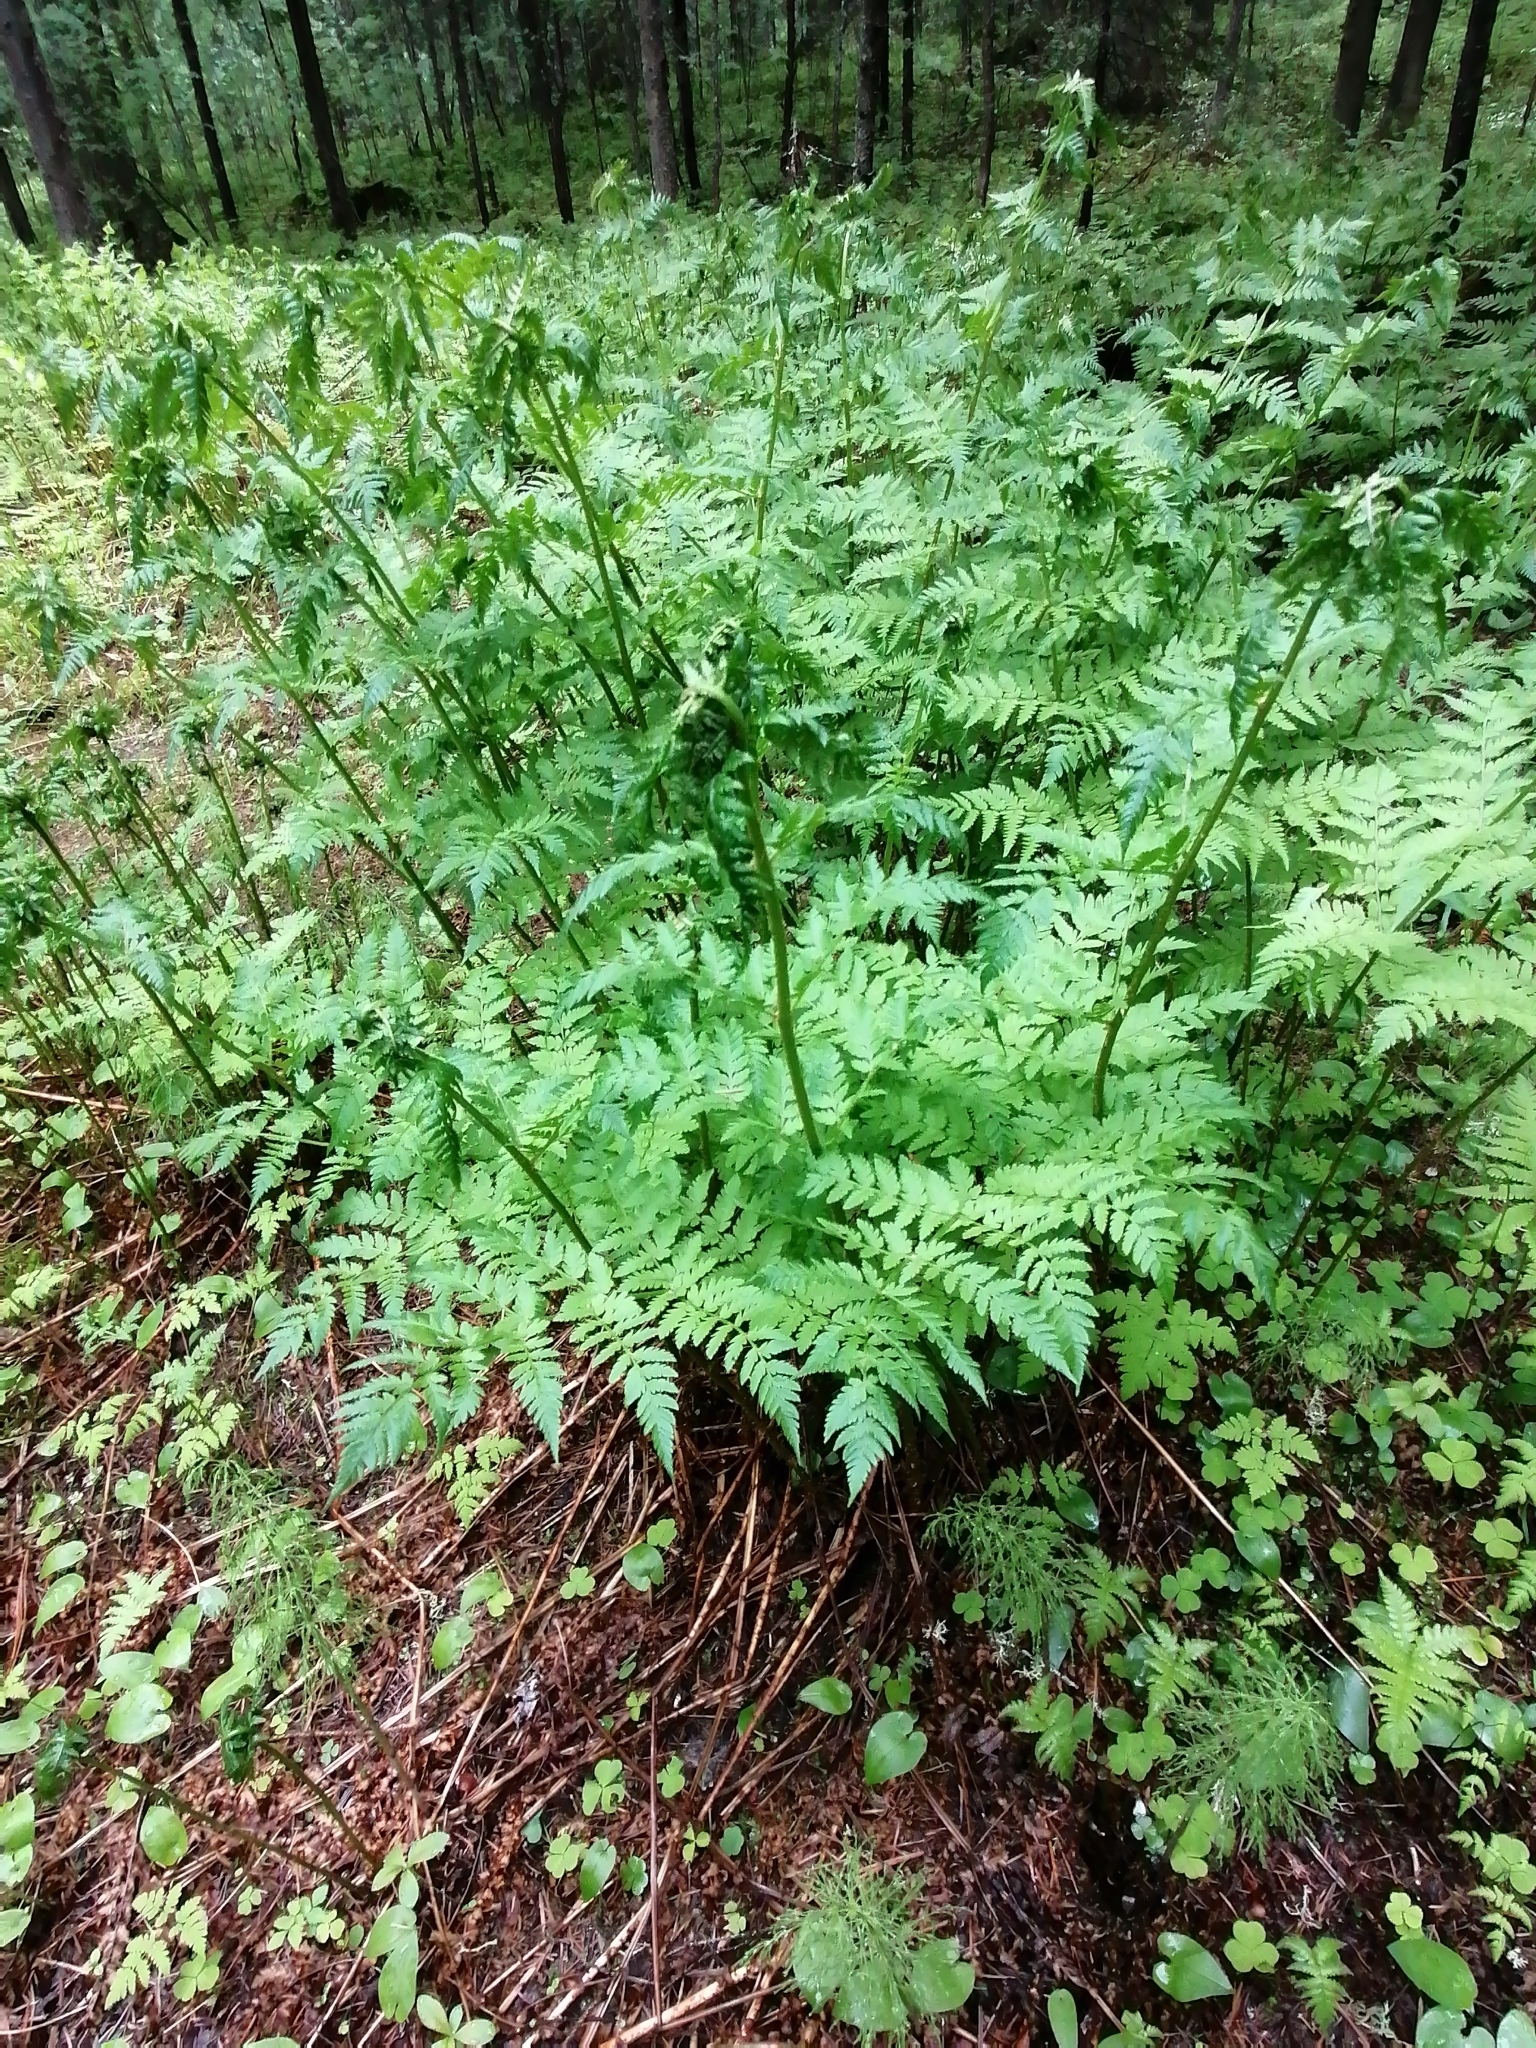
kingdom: Plantae
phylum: Tracheophyta
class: Polypodiopsida
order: Polypodiales
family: Athyriaceae
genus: Athyrium
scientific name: Athyrium filix-femina
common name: Lady fern
